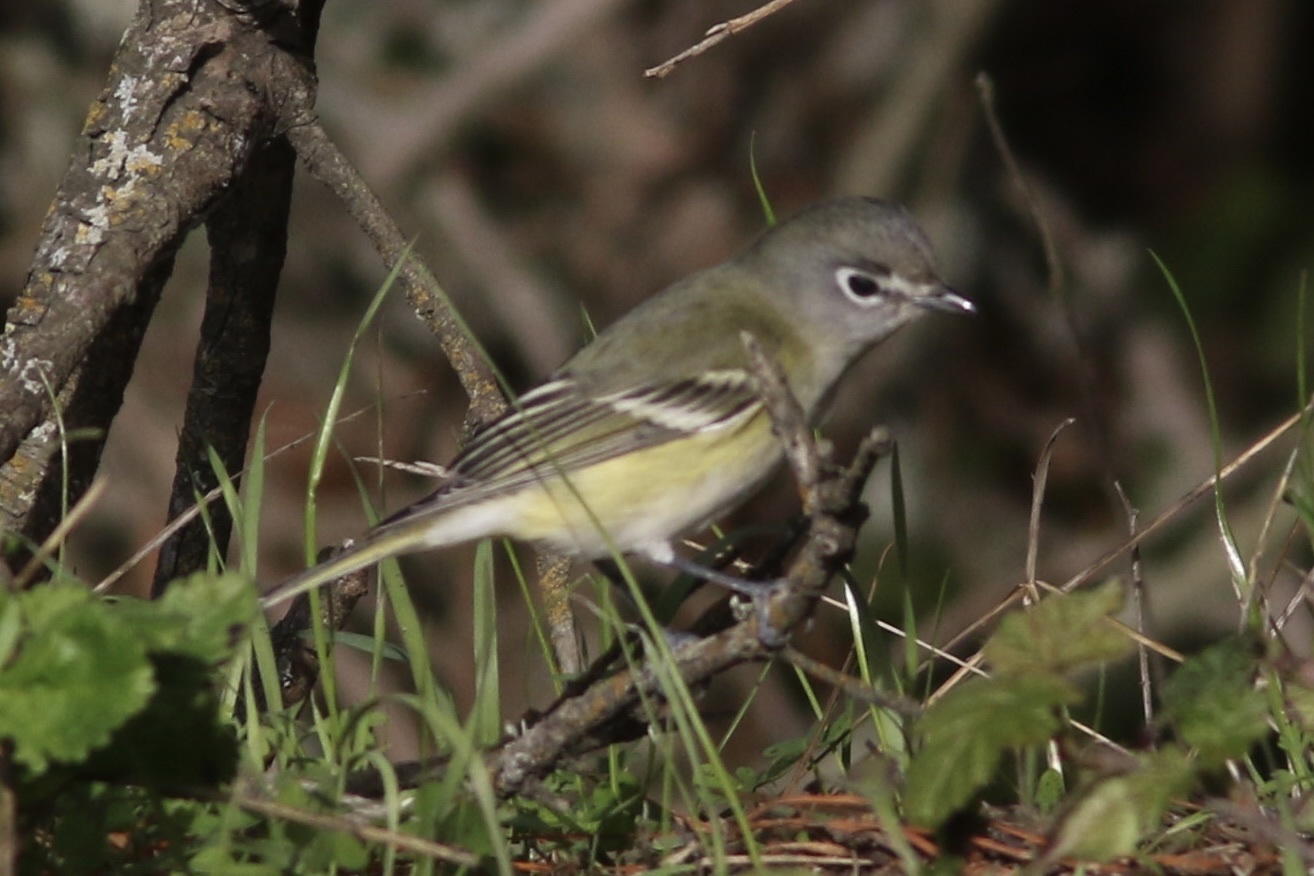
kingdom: Animalia
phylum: Chordata
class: Aves
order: Passeriformes
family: Vireonidae
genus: Vireo
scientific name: Vireo cassinii
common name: Cassin's vireo
